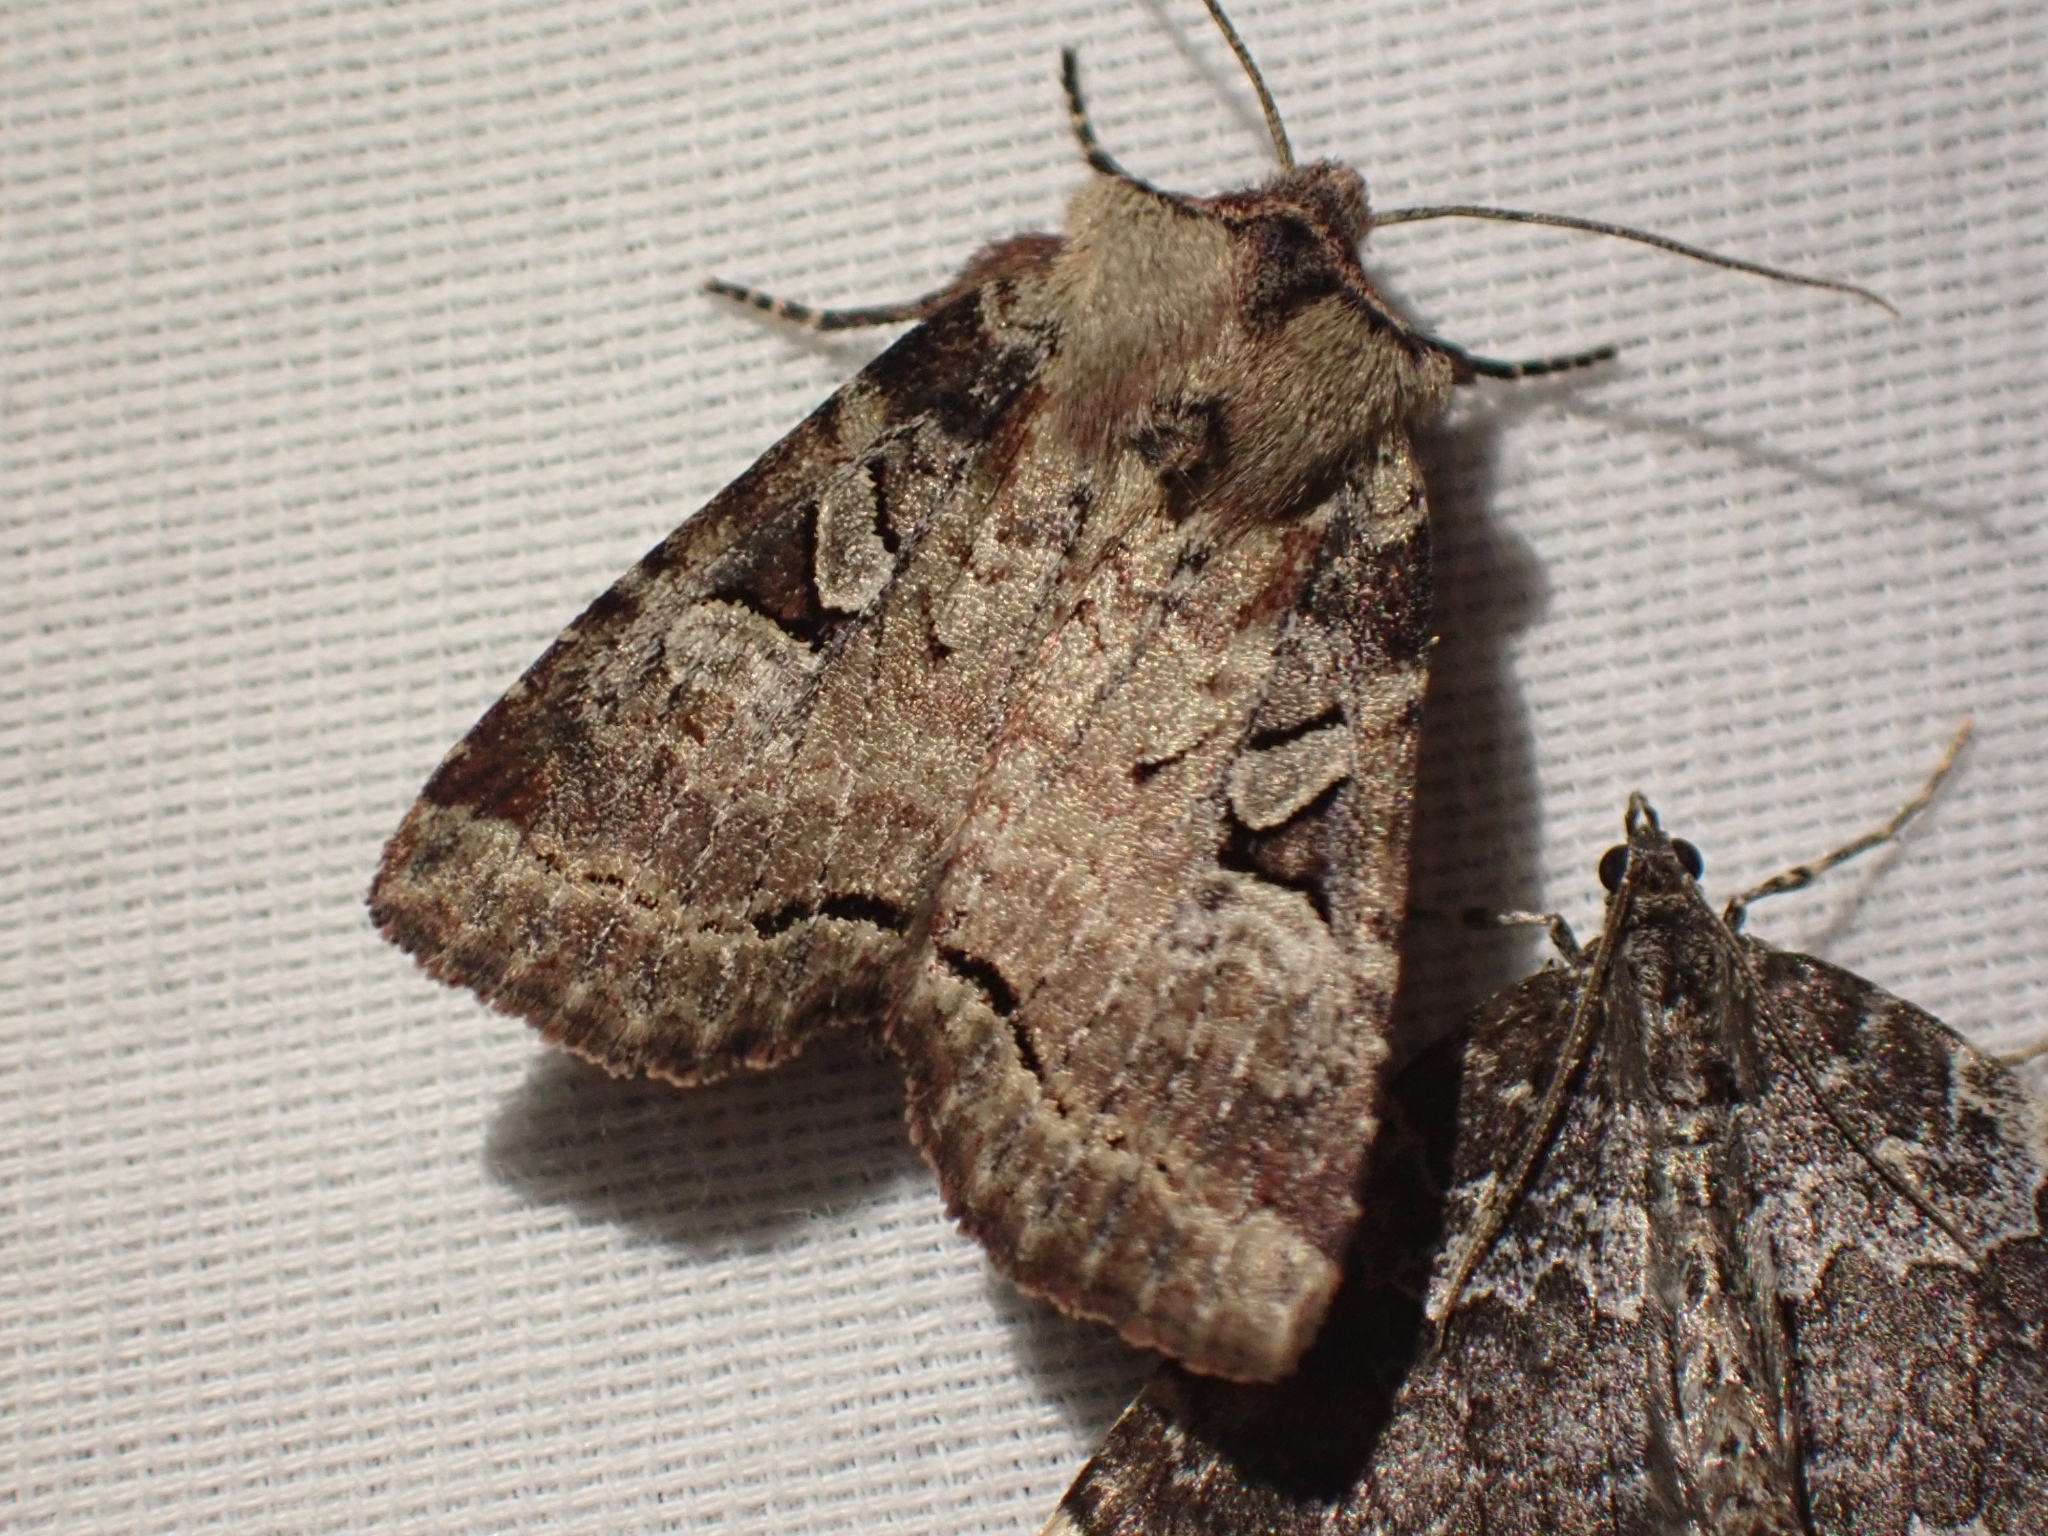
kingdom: Animalia
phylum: Arthropoda
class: Insecta
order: Lepidoptera
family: Noctuidae
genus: Hillia
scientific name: Hillia iris
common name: Iris rover moth
